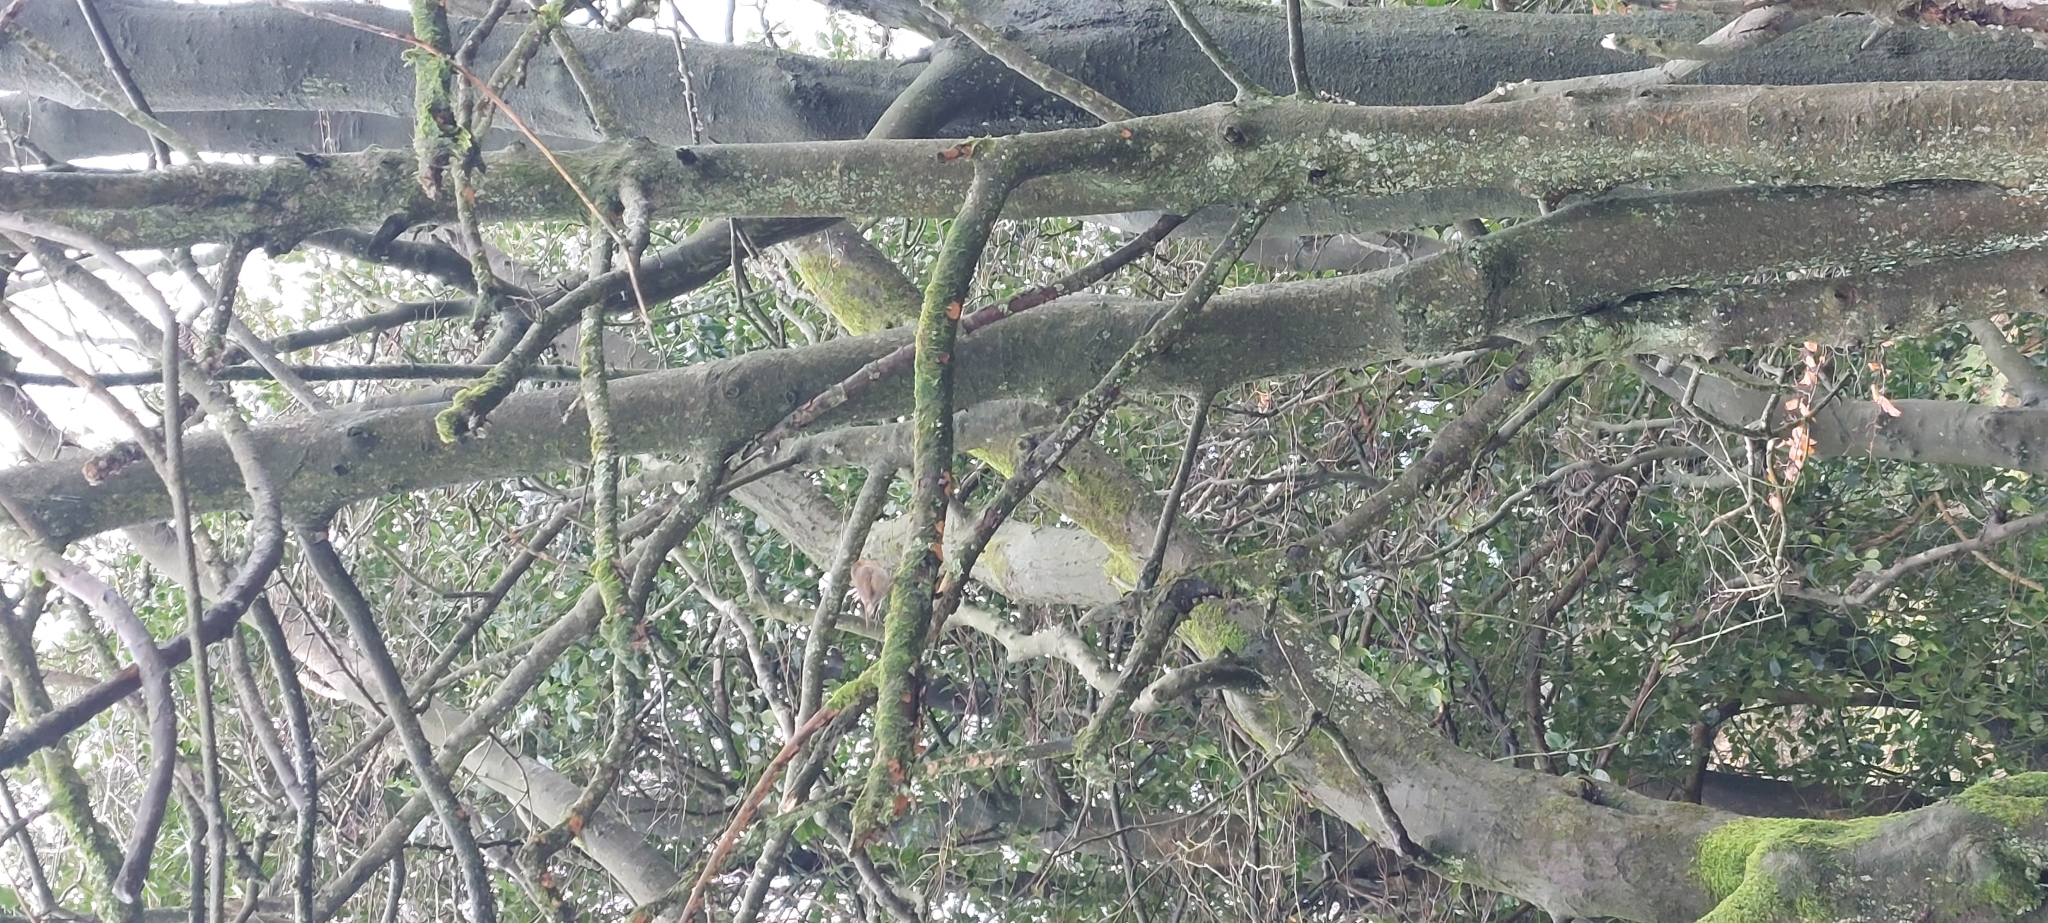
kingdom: Animalia
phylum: Chordata
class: Aves
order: Passeriformes
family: Muscicapidae
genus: Erithacus
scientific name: Erithacus rubecula
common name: European robin
